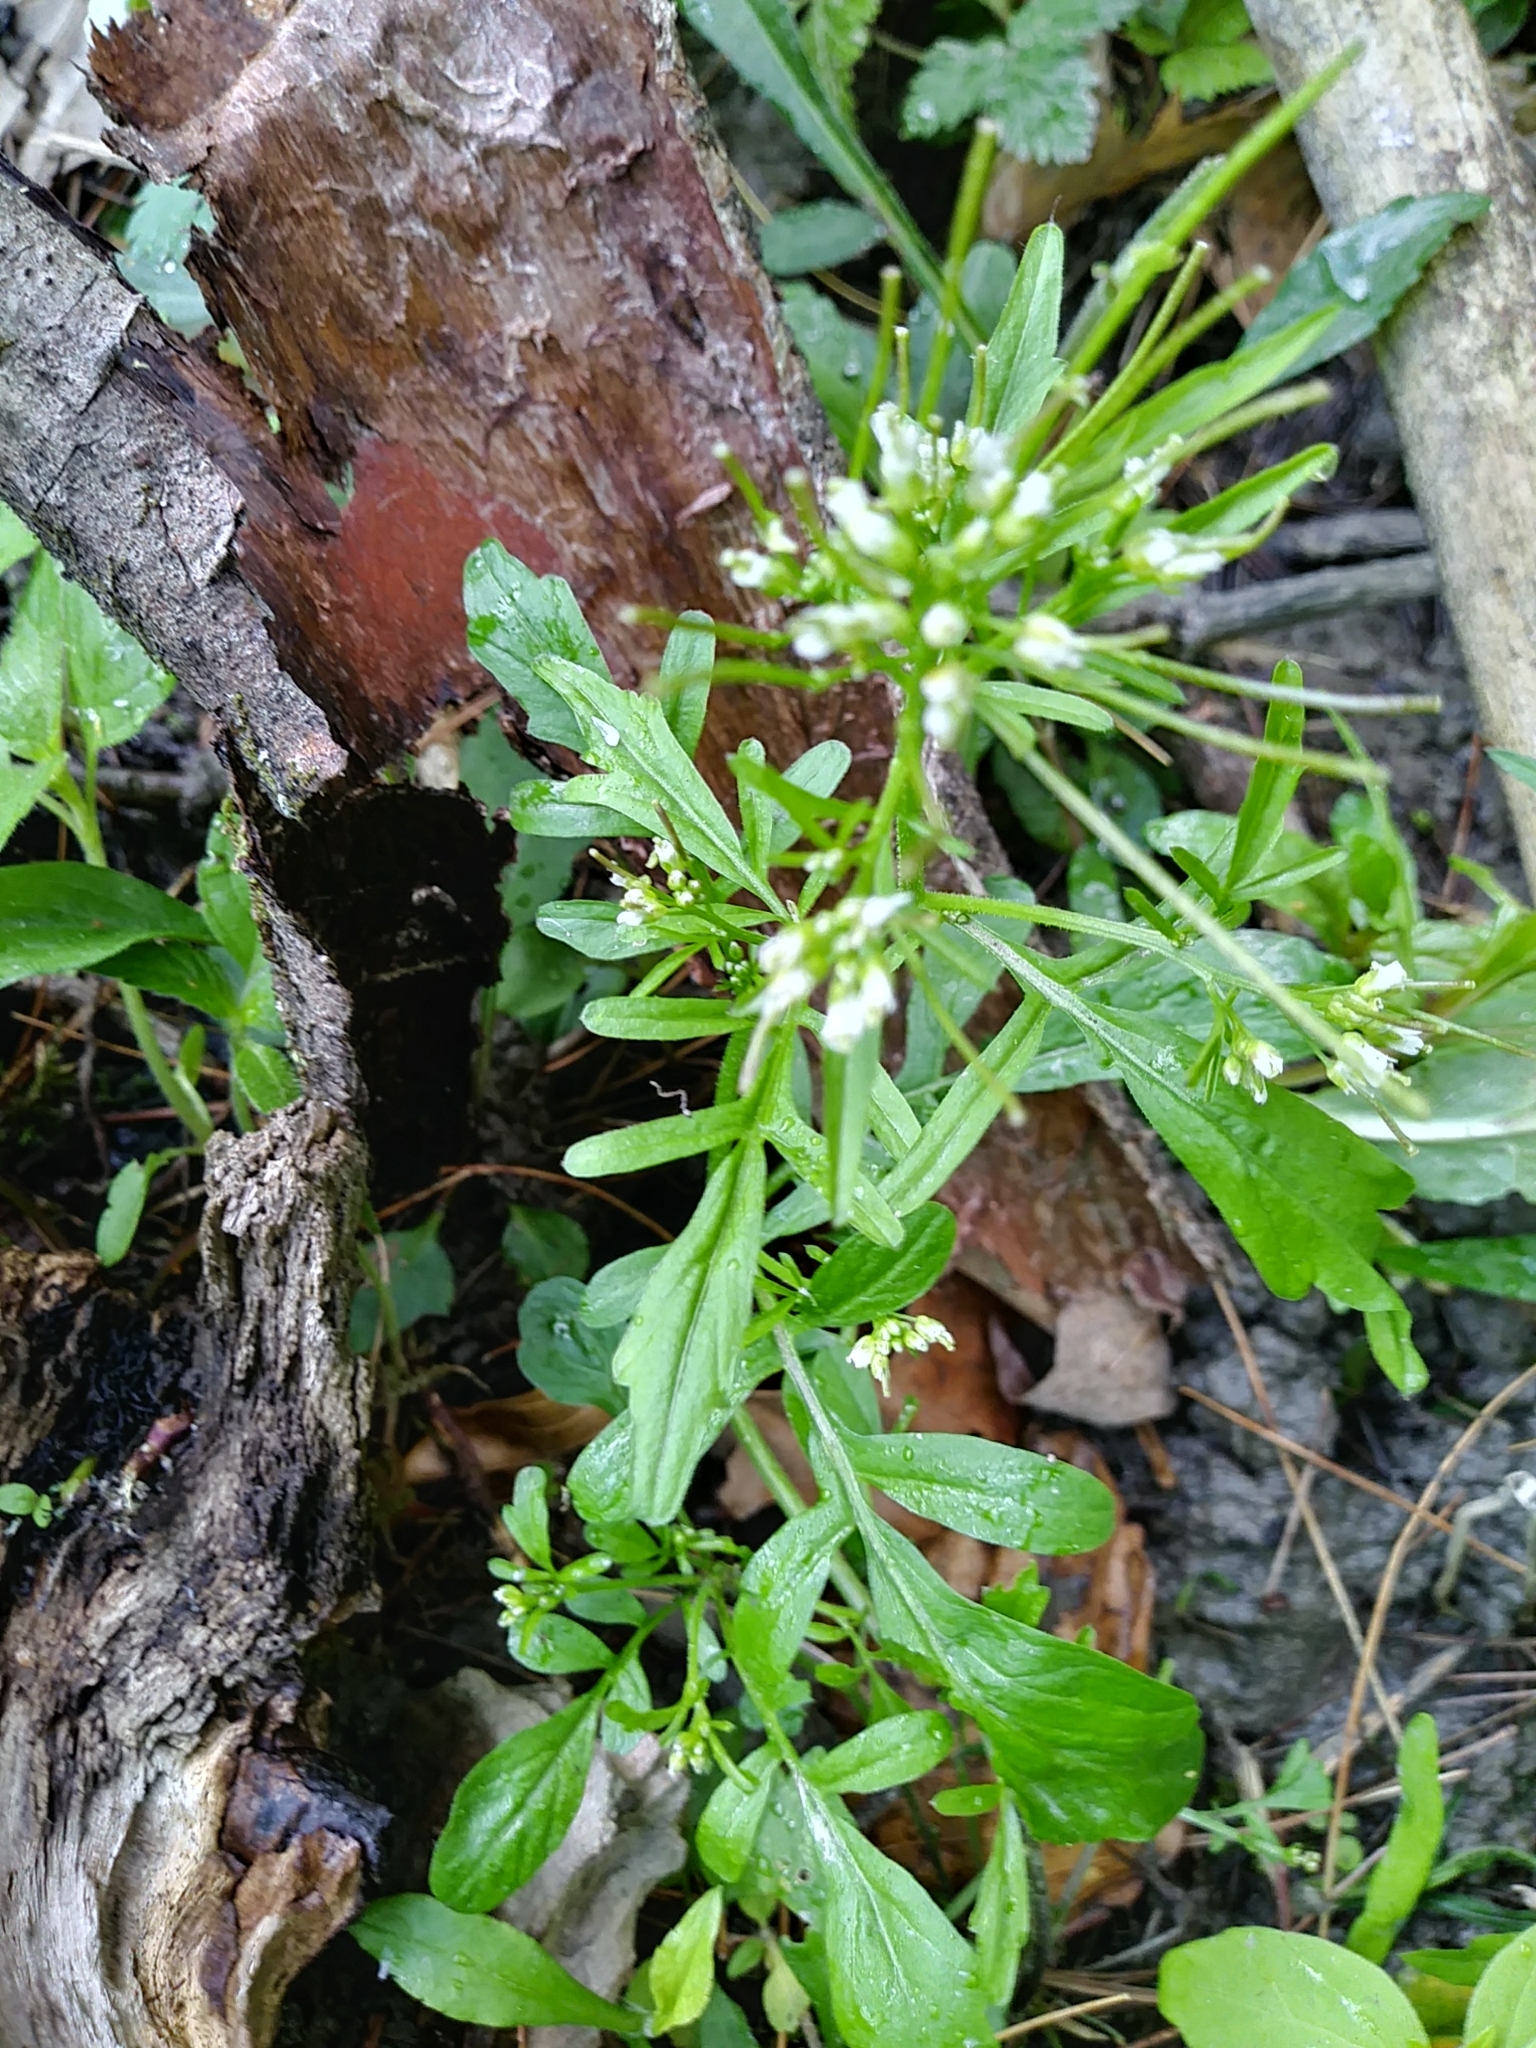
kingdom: Plantae
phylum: Tracheophyta
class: Magnoliopsida
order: Brassicales
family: Brassicaceae
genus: Cardamine
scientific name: Cardamine pensylvanica
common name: Pennsylvania bittercress
